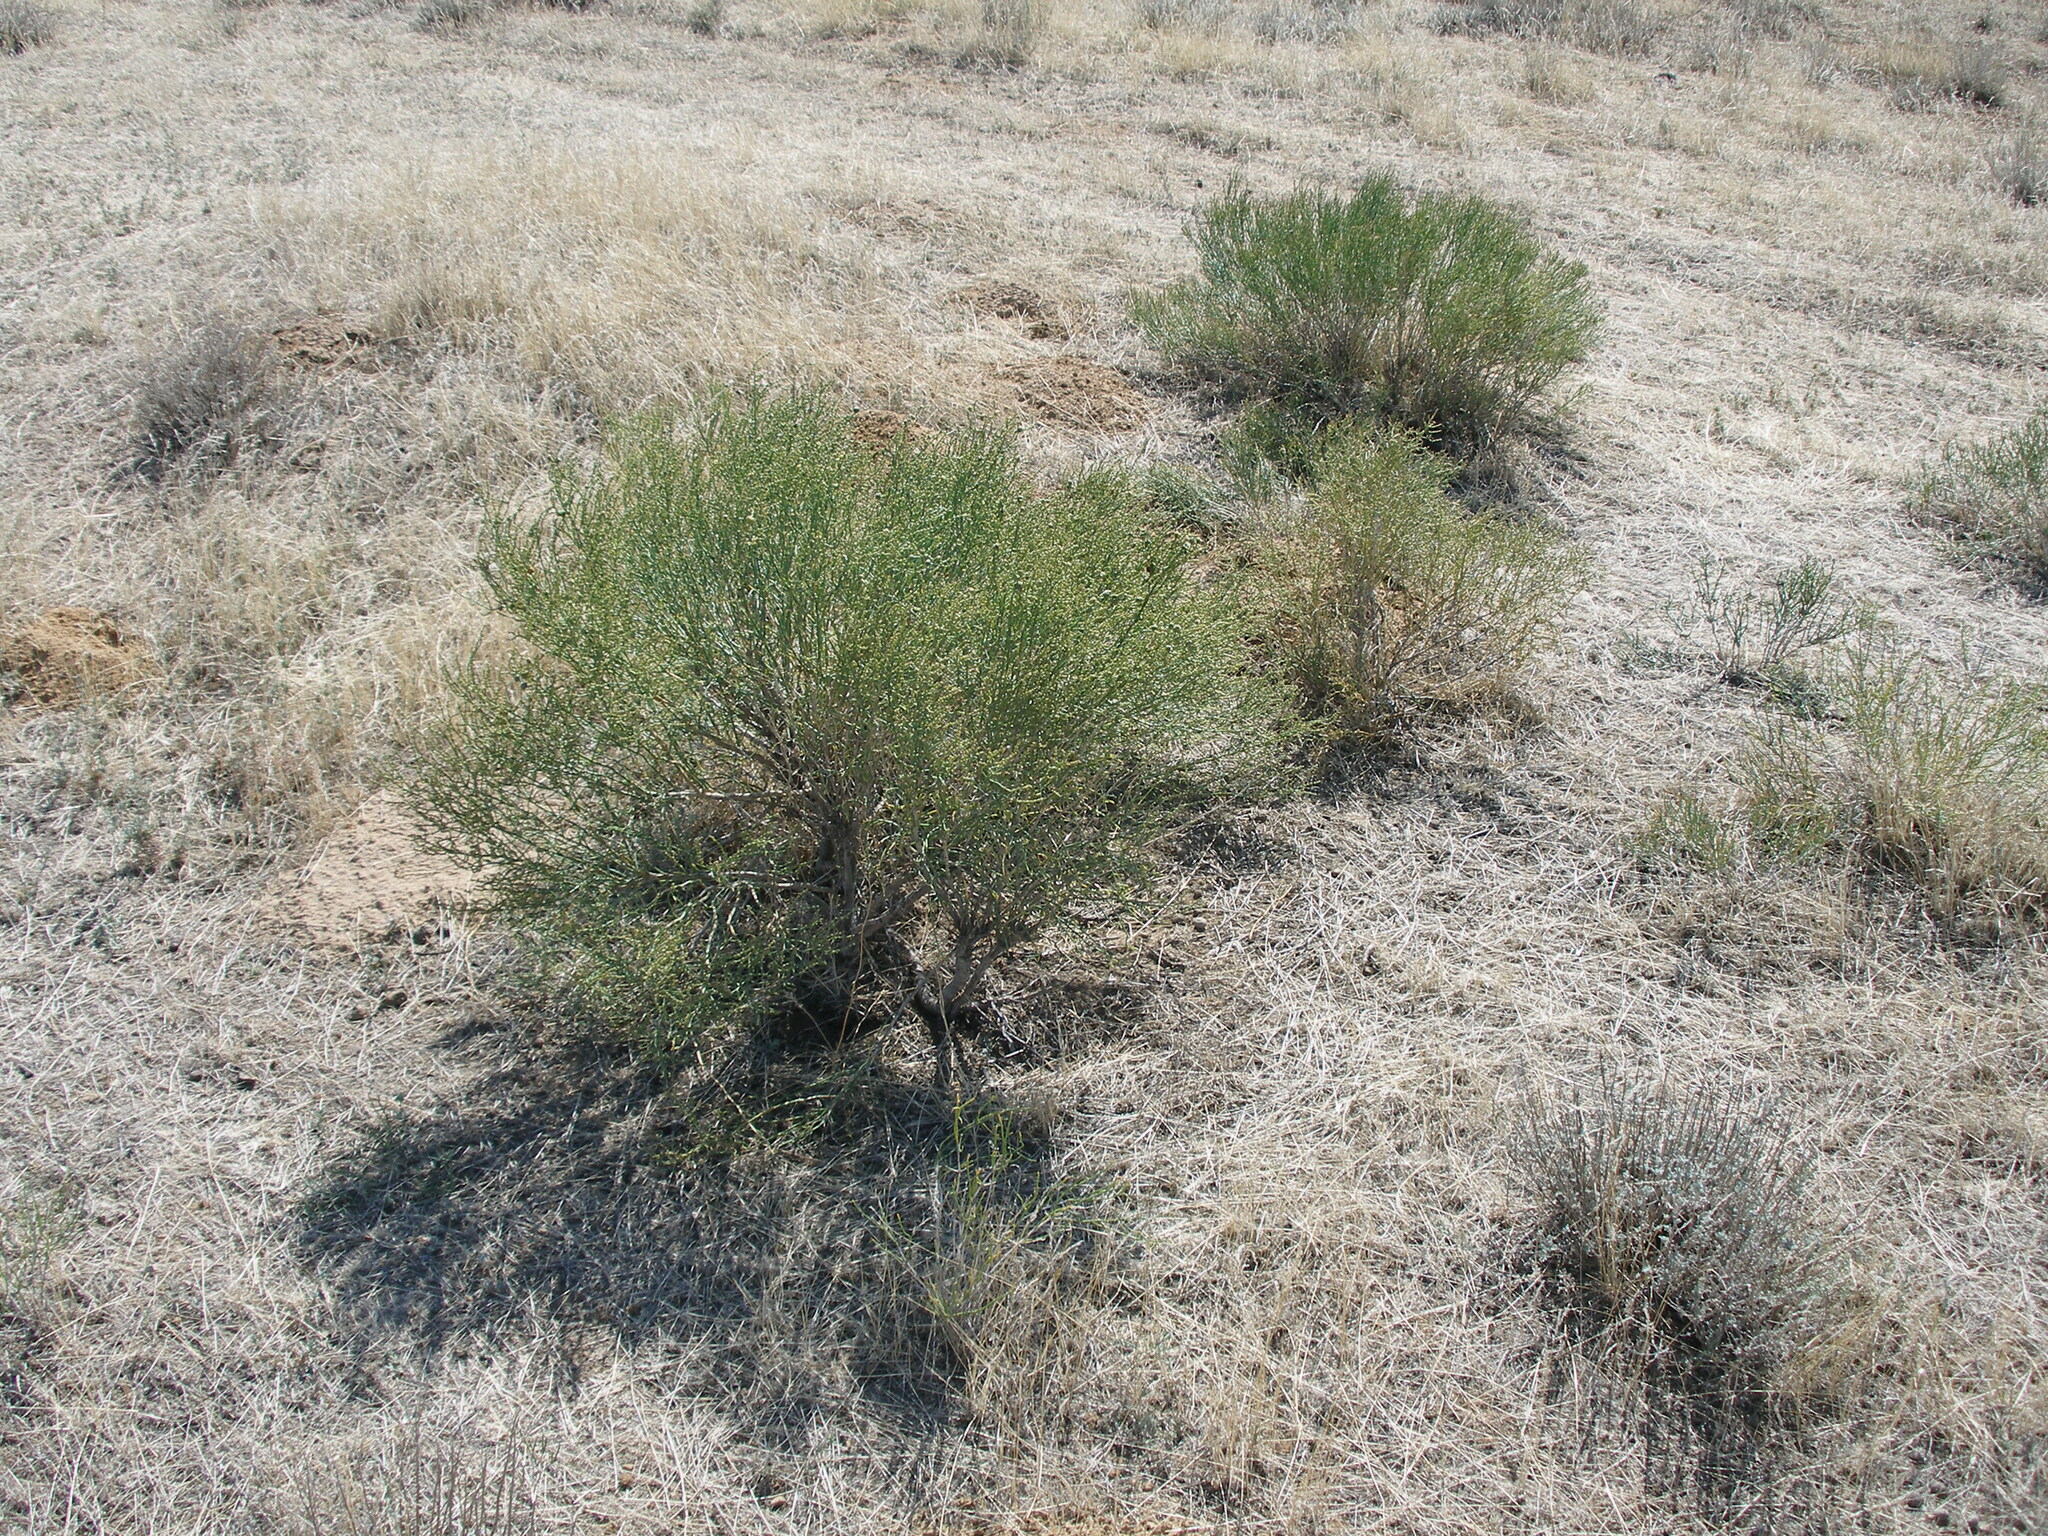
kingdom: Plantae
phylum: Tracheophyta
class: Magnoliopsida
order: Caryophyllales
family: Amaranthaceae
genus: Anabasis
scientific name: Anabasis aphylla
